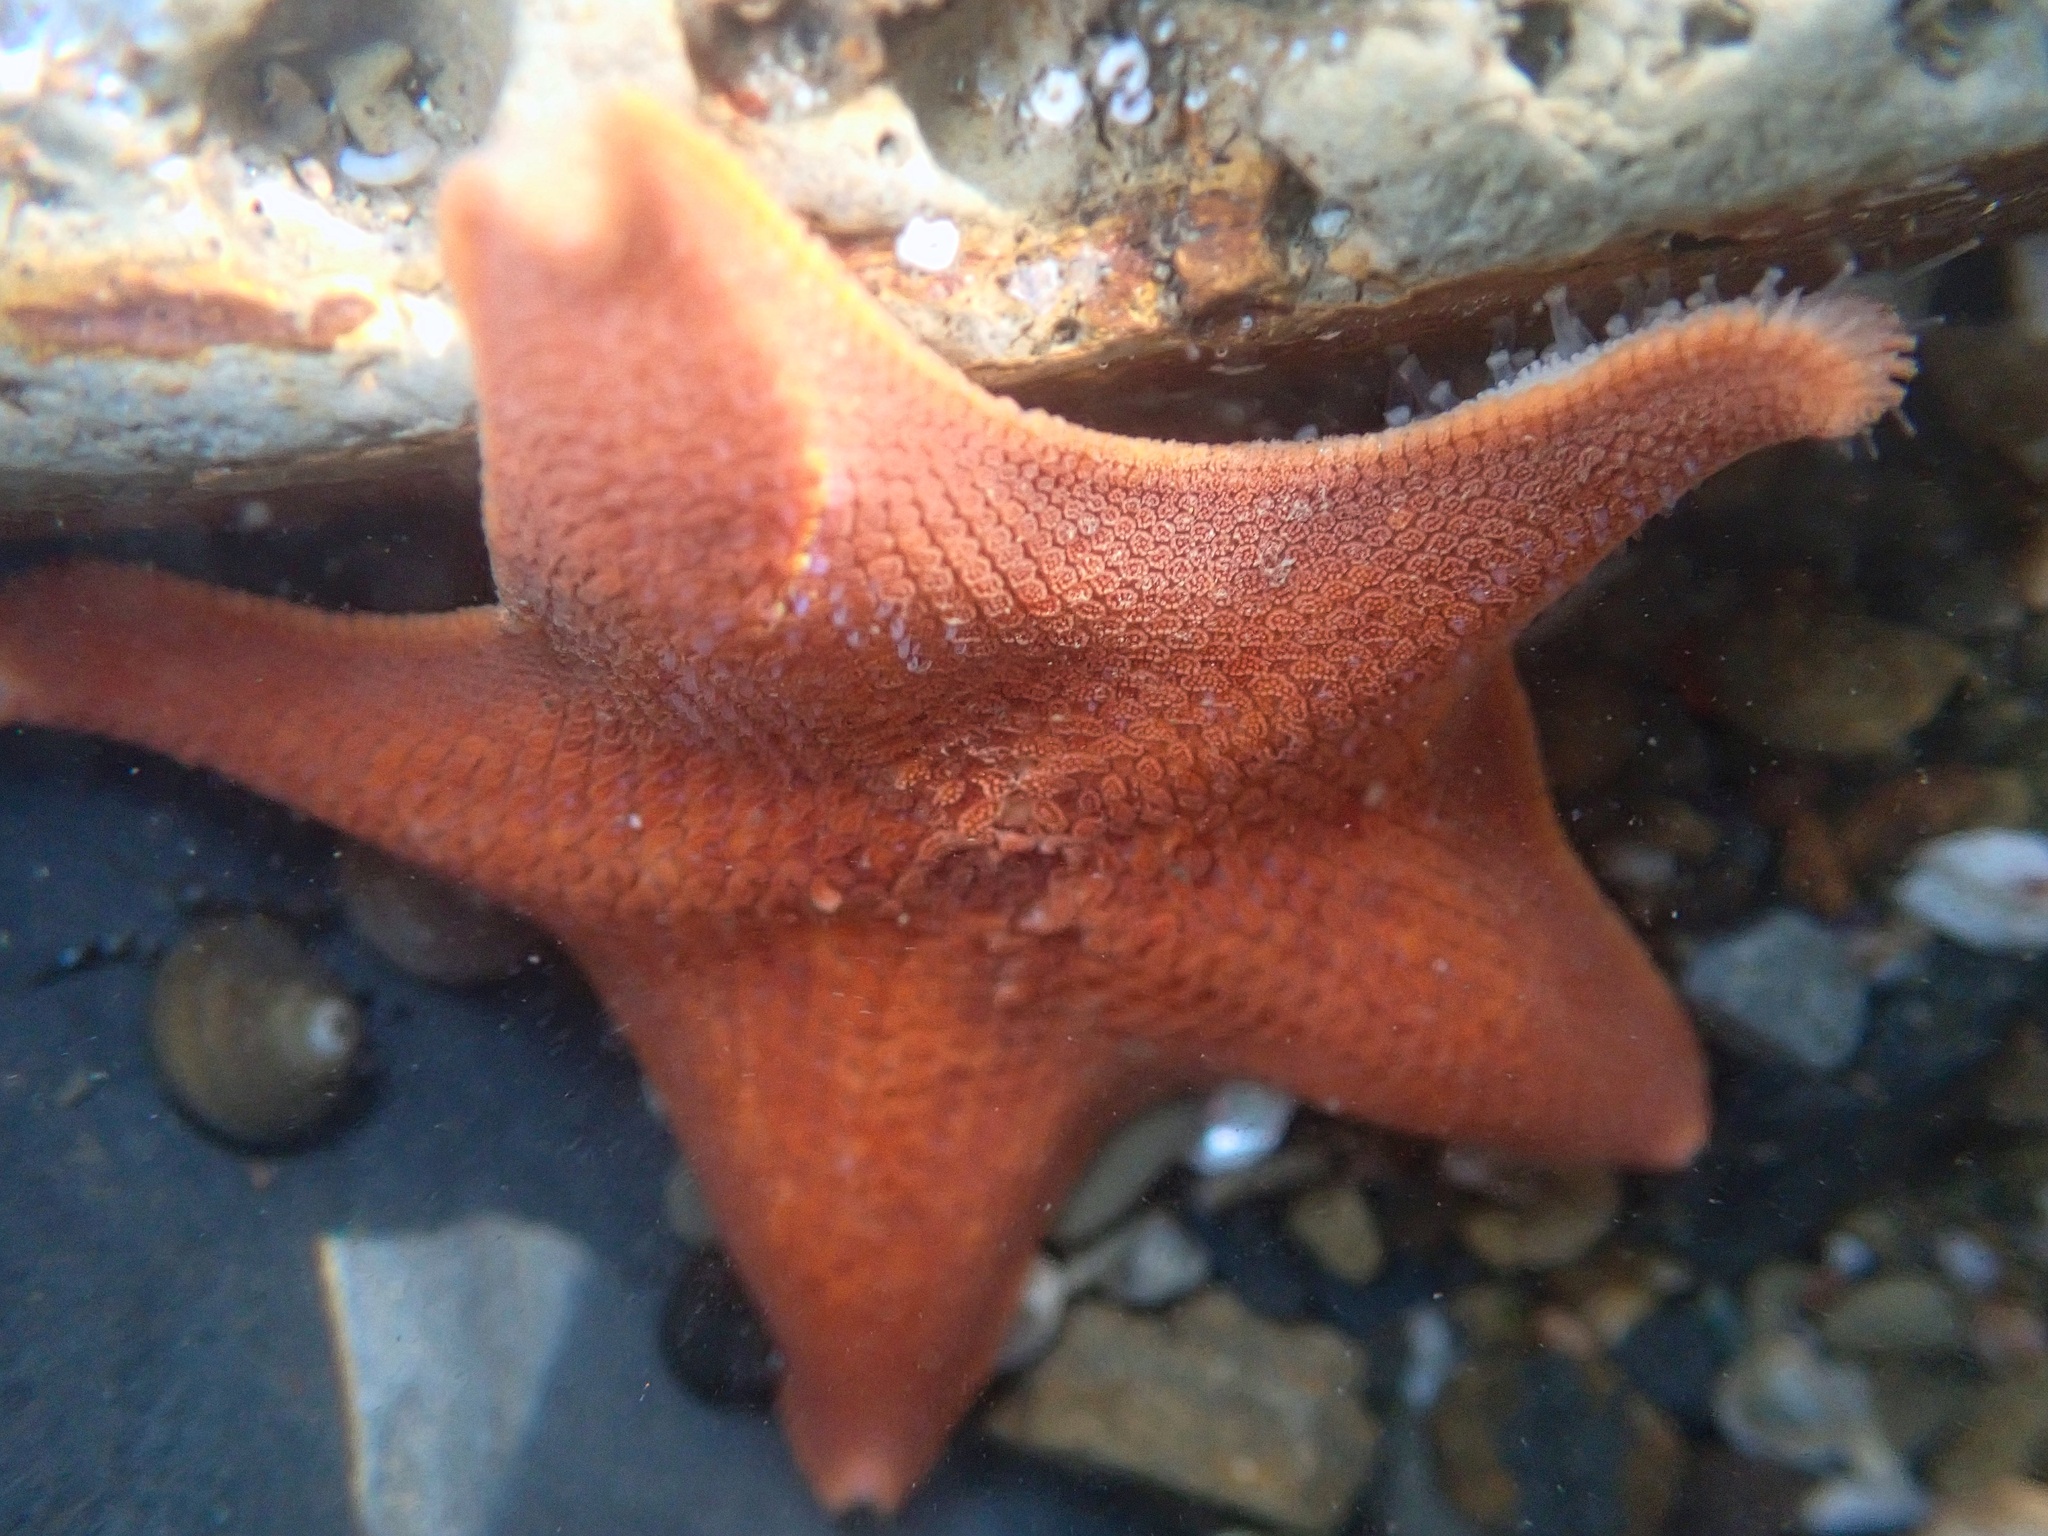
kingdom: Animalia
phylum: Echinodermata
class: Asteroidea
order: Valvatida
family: Asterinidae
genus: Patiria
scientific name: Patiria miniata
